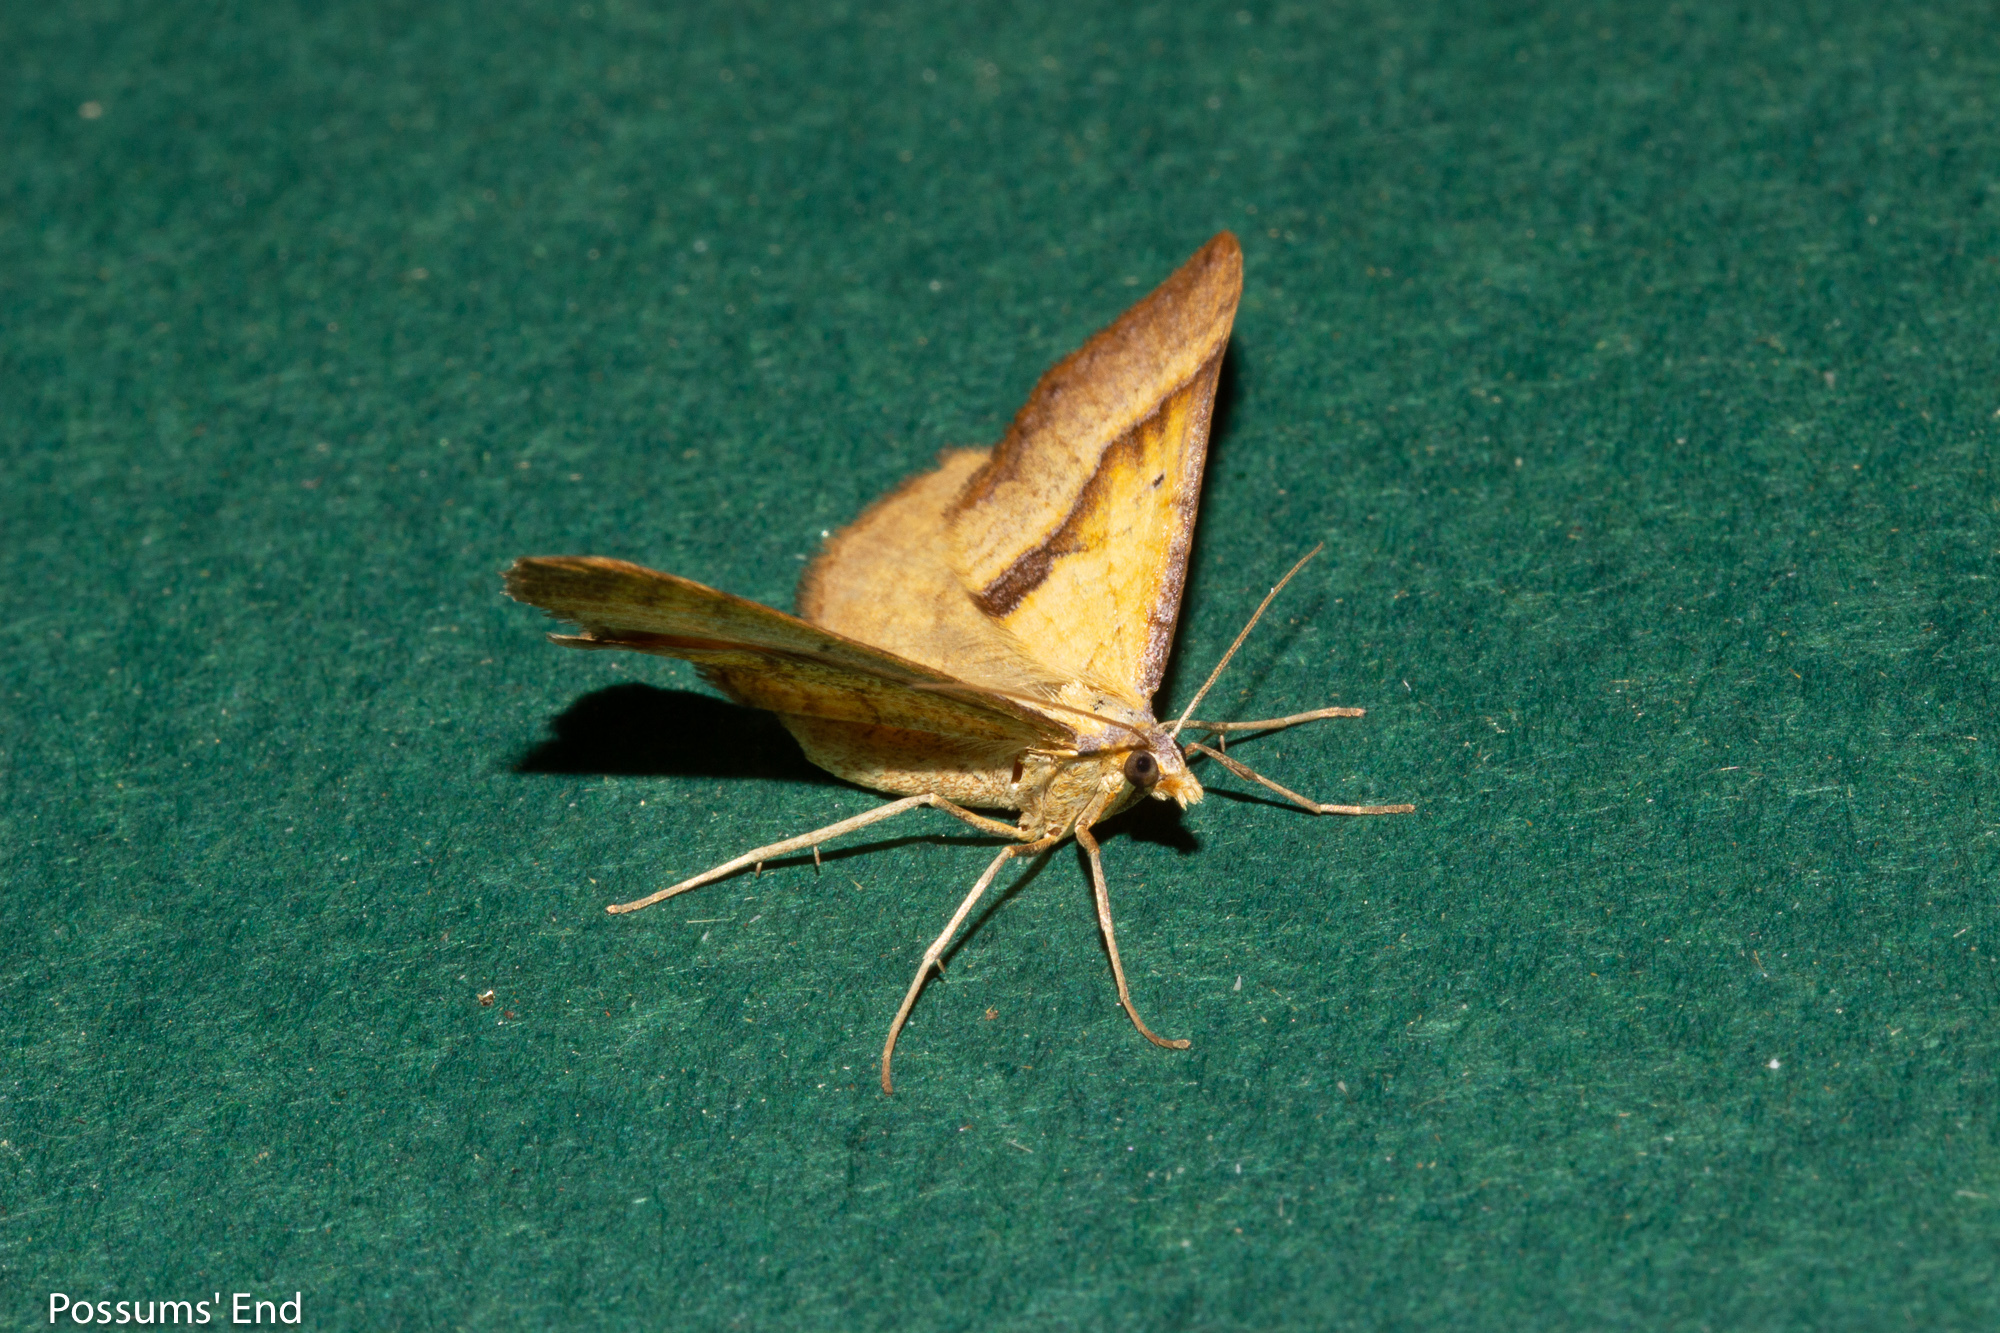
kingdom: Animalia
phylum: Arthropoda
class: Insecta
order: Lepidoptera
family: Geometridae
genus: Anachloris
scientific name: Anachloris subochraria
